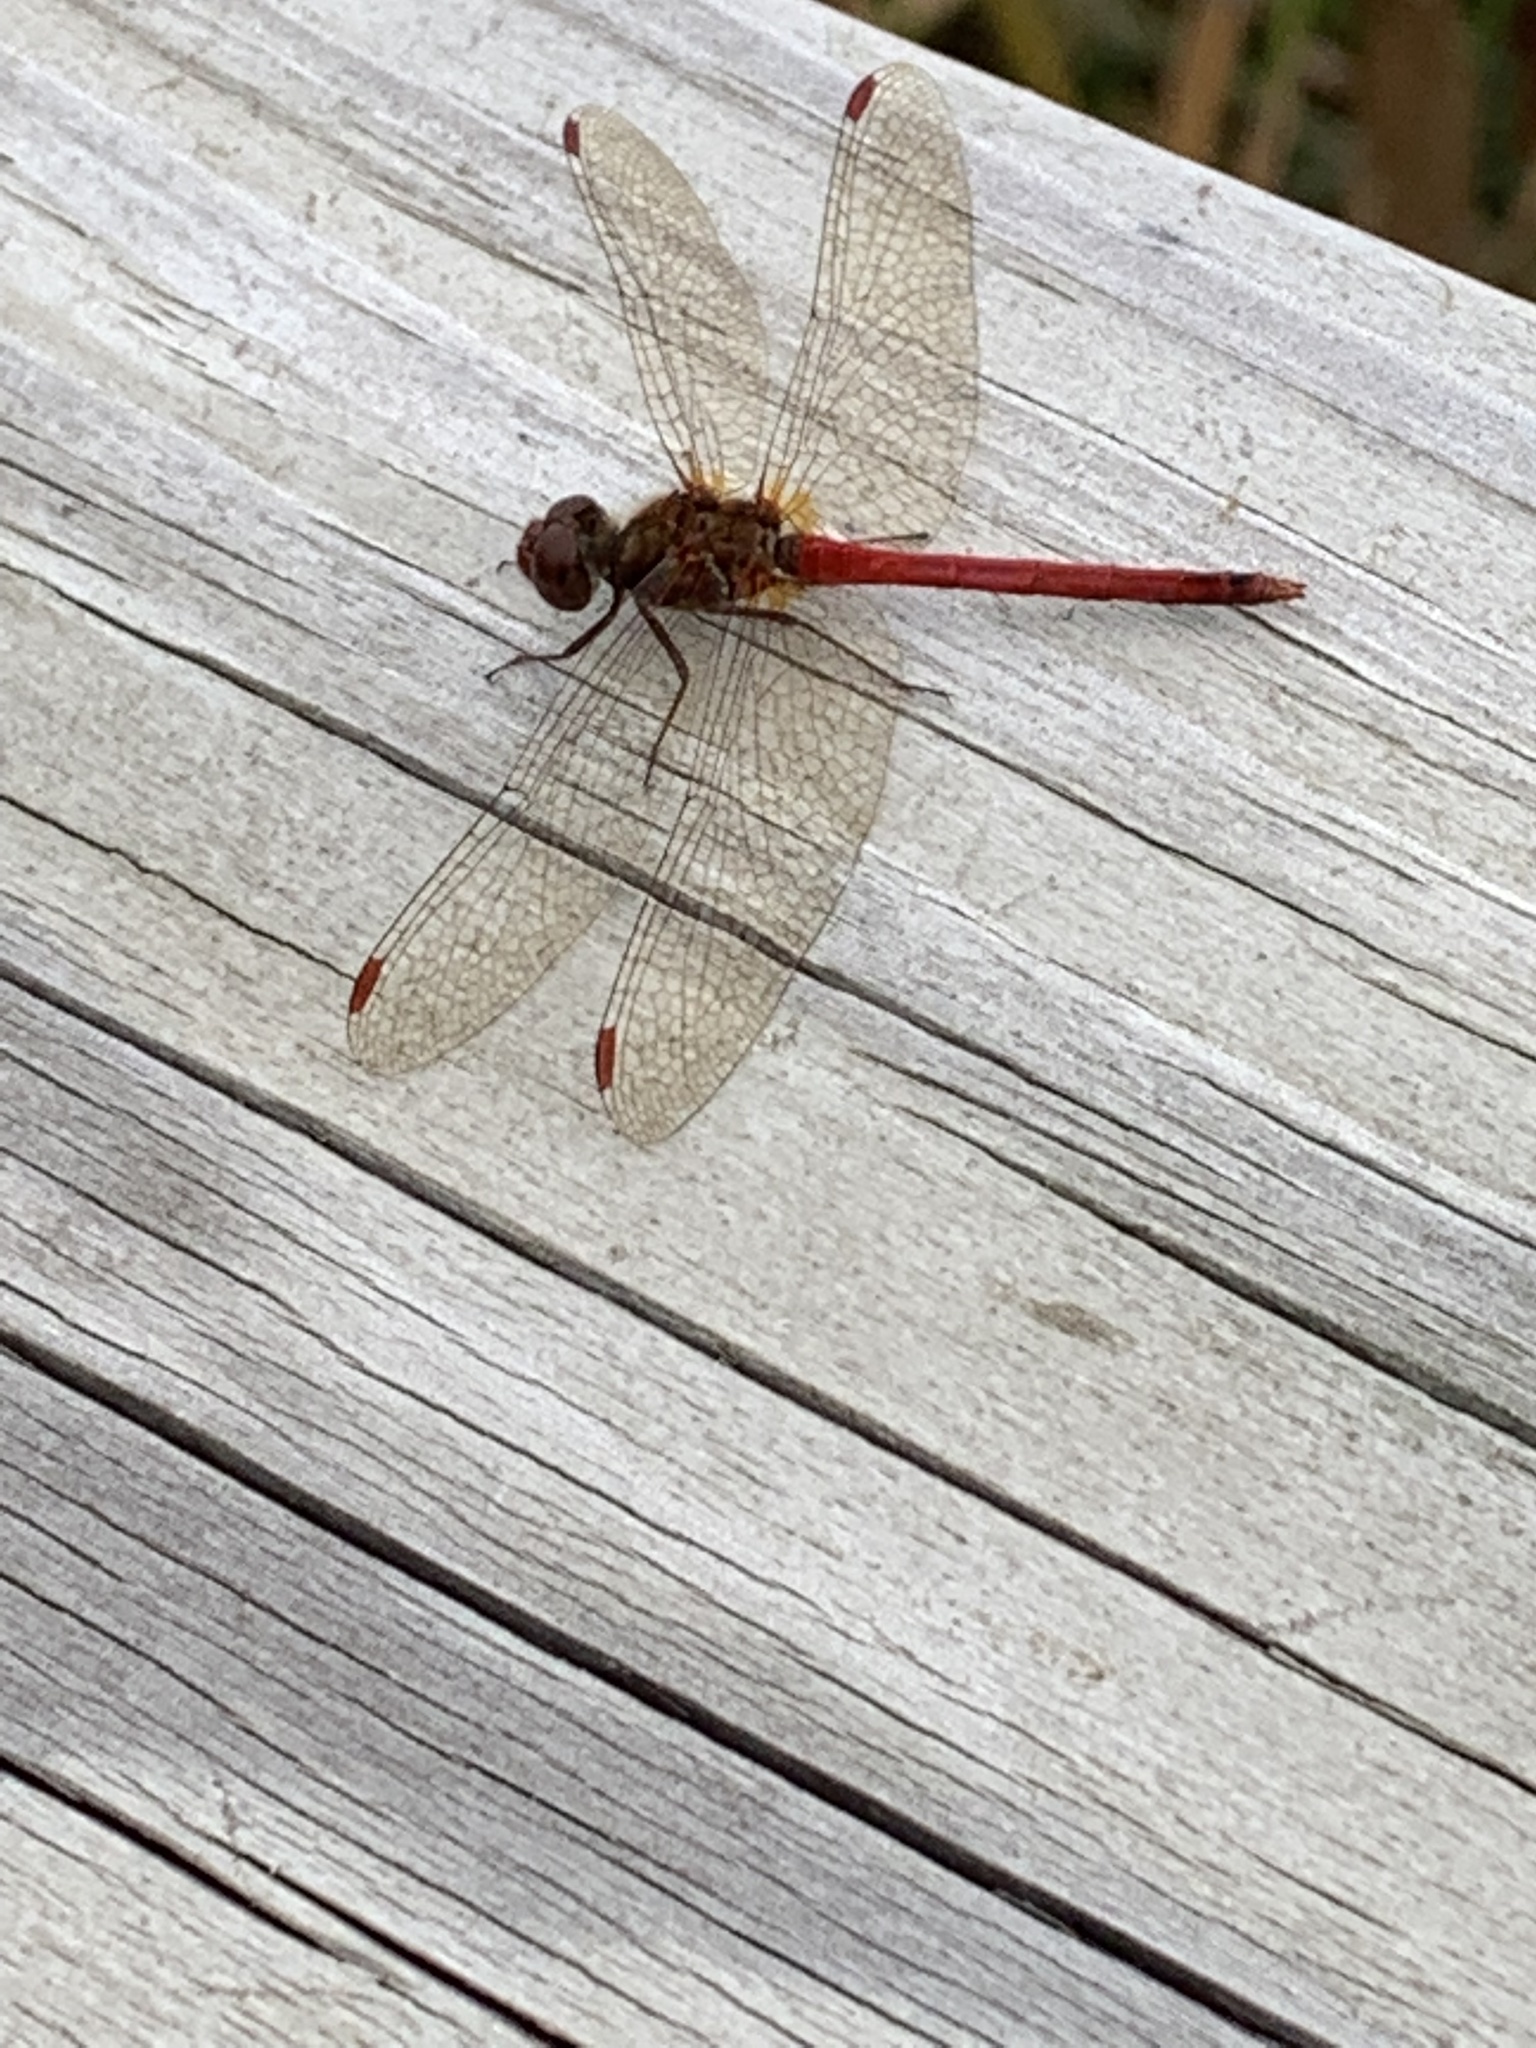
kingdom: Animalia
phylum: Arthropoda
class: Insecta
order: Odonata
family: Libellulidae
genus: Sympetrum
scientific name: Sympetrum vicinum
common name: Autumn meadowhawk
